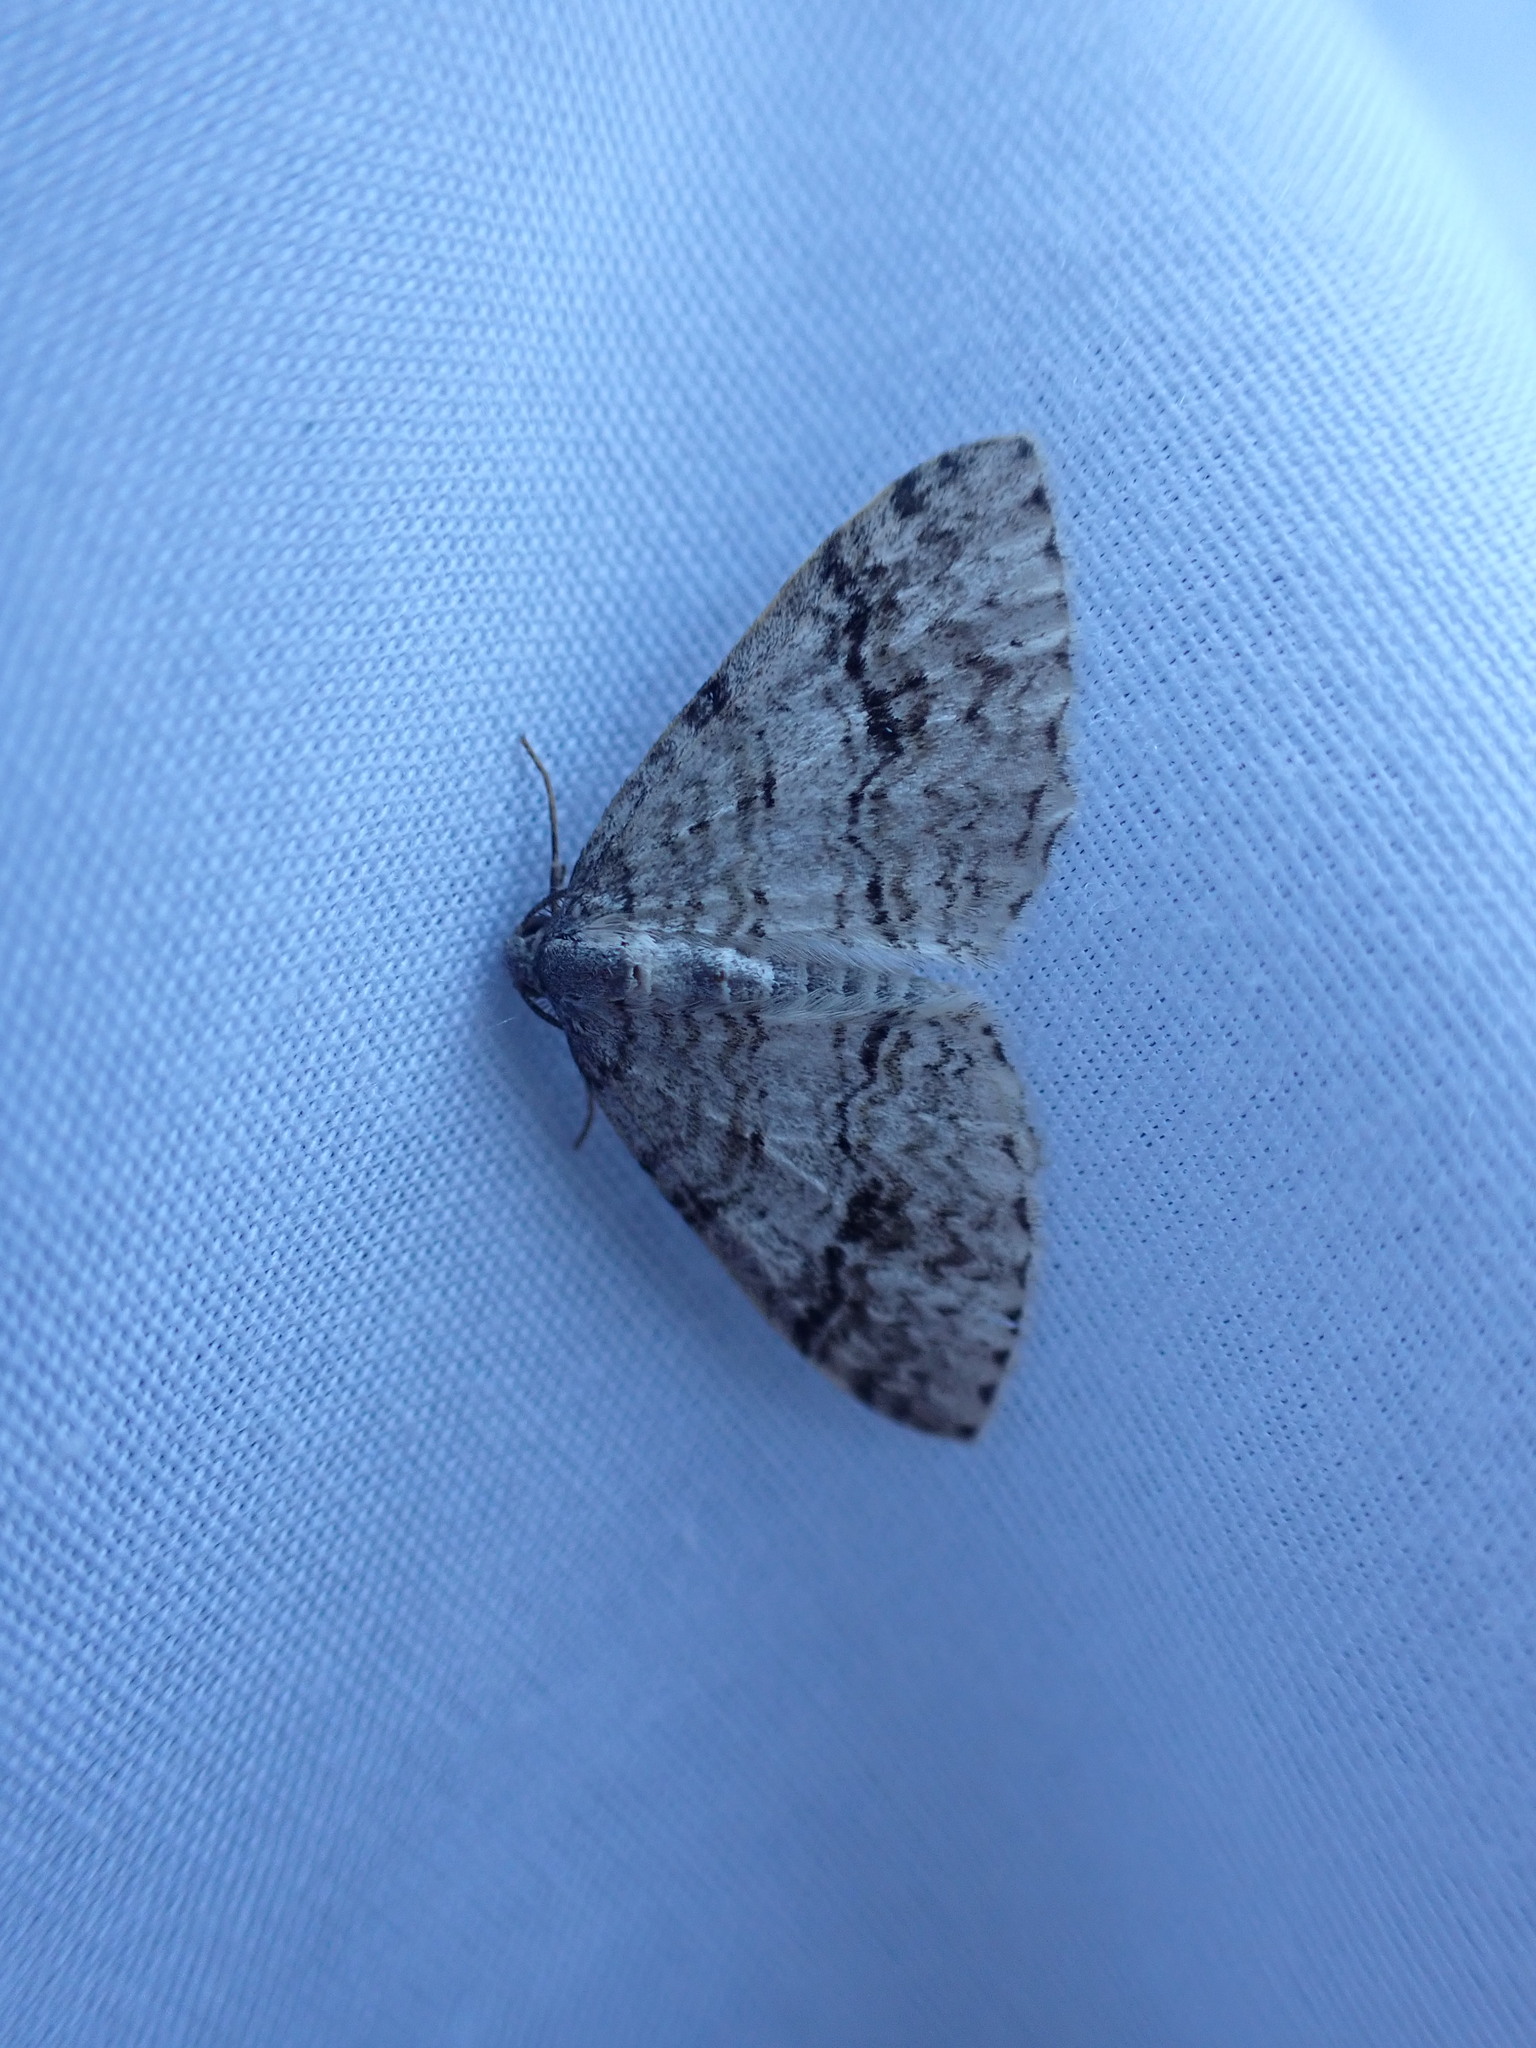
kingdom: Animalia
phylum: Arthropoda
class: Insecta
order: Lepidoptera
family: Geometridae
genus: Venusia
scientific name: Venusia cambrica
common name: Welsh wave
